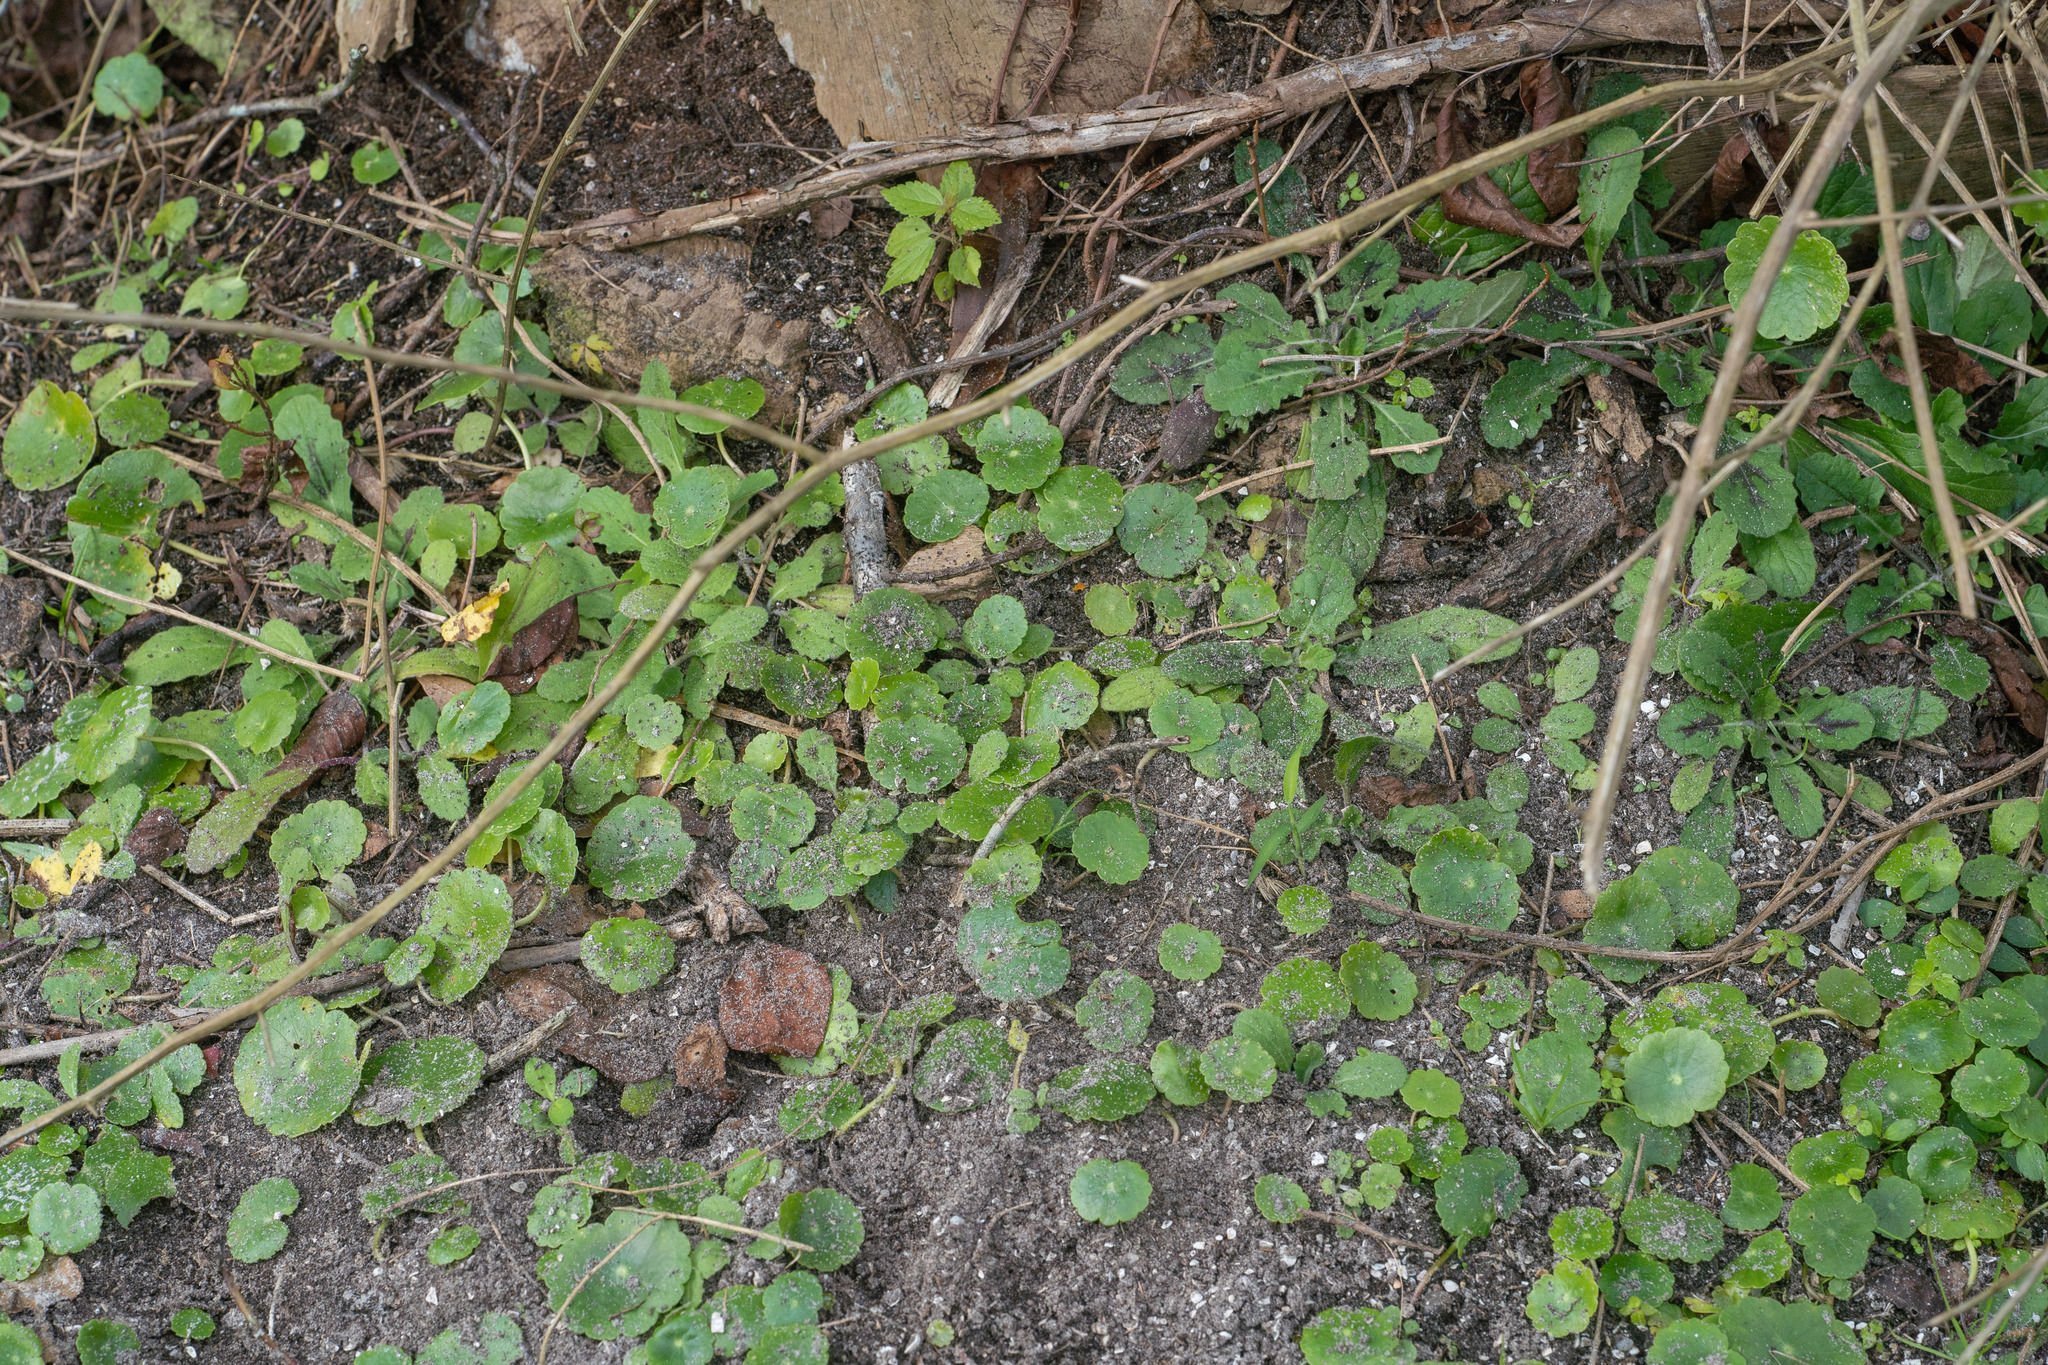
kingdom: Plantae
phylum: Tracheophyta
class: Magnoliopsida
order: Apiales
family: Araliaceae
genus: Hydrocotyle
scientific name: Hydrocotyle
